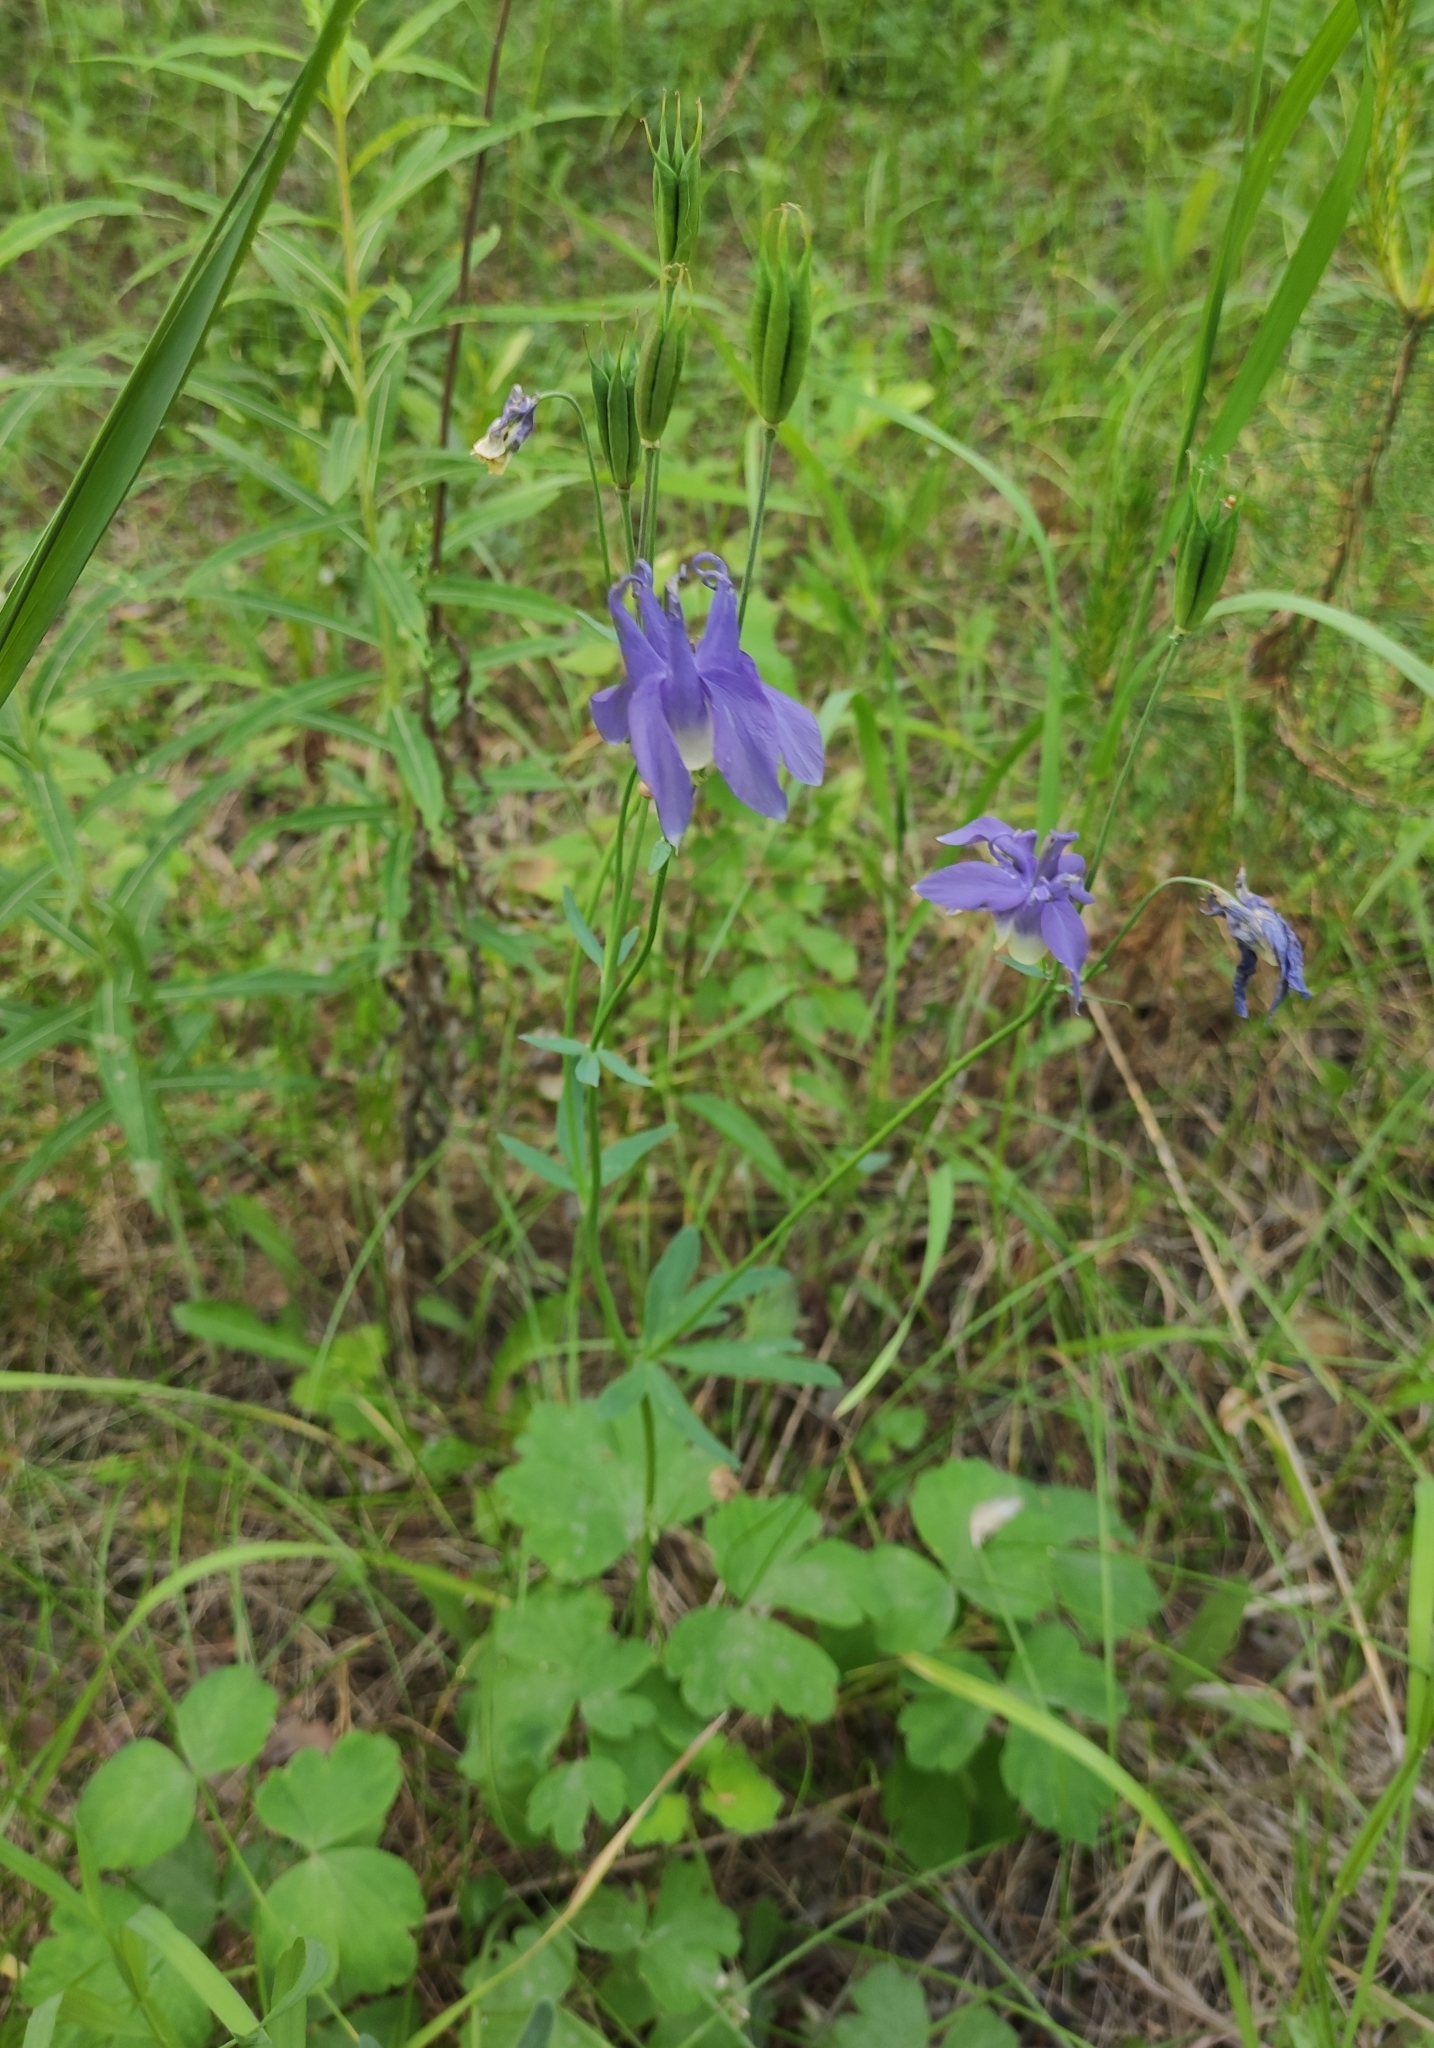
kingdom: Plantae
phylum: Tracheophyta
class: Magnoliopsida
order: Ranunculales
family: Ranunculaceae
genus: Aquilegia
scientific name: Aquilegia sibirica
